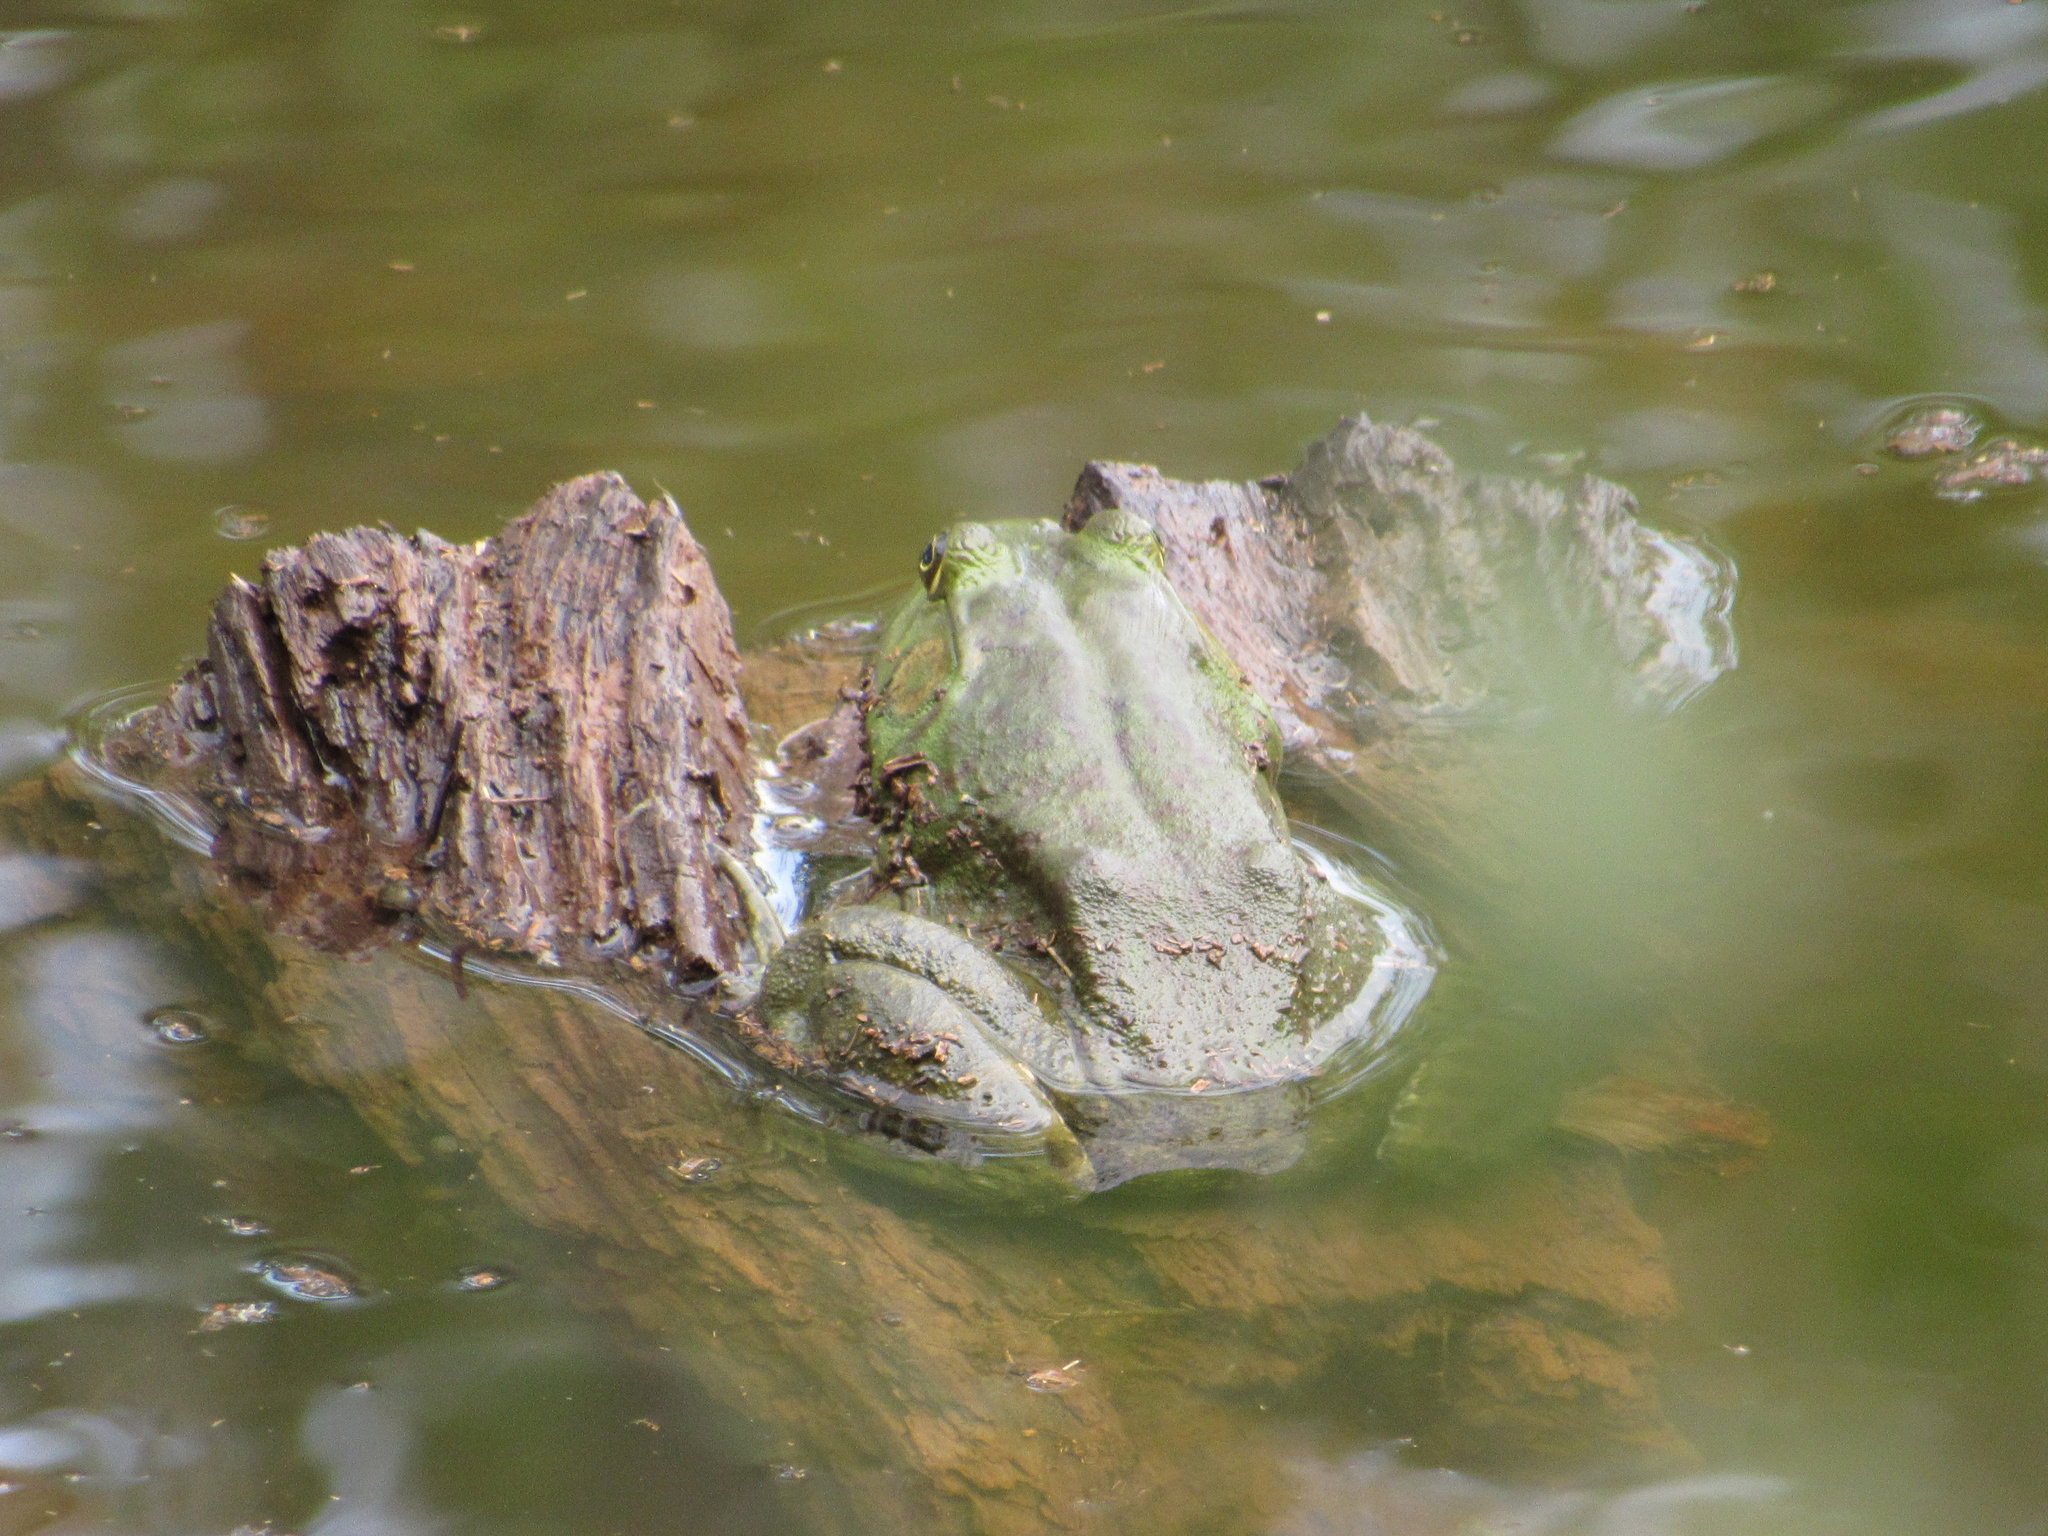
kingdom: Animalia
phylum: Chordata
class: Amphibia
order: Anura
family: Ranidae
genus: Lithobates
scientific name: Lithobates catesbeianus
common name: American bullfrog
